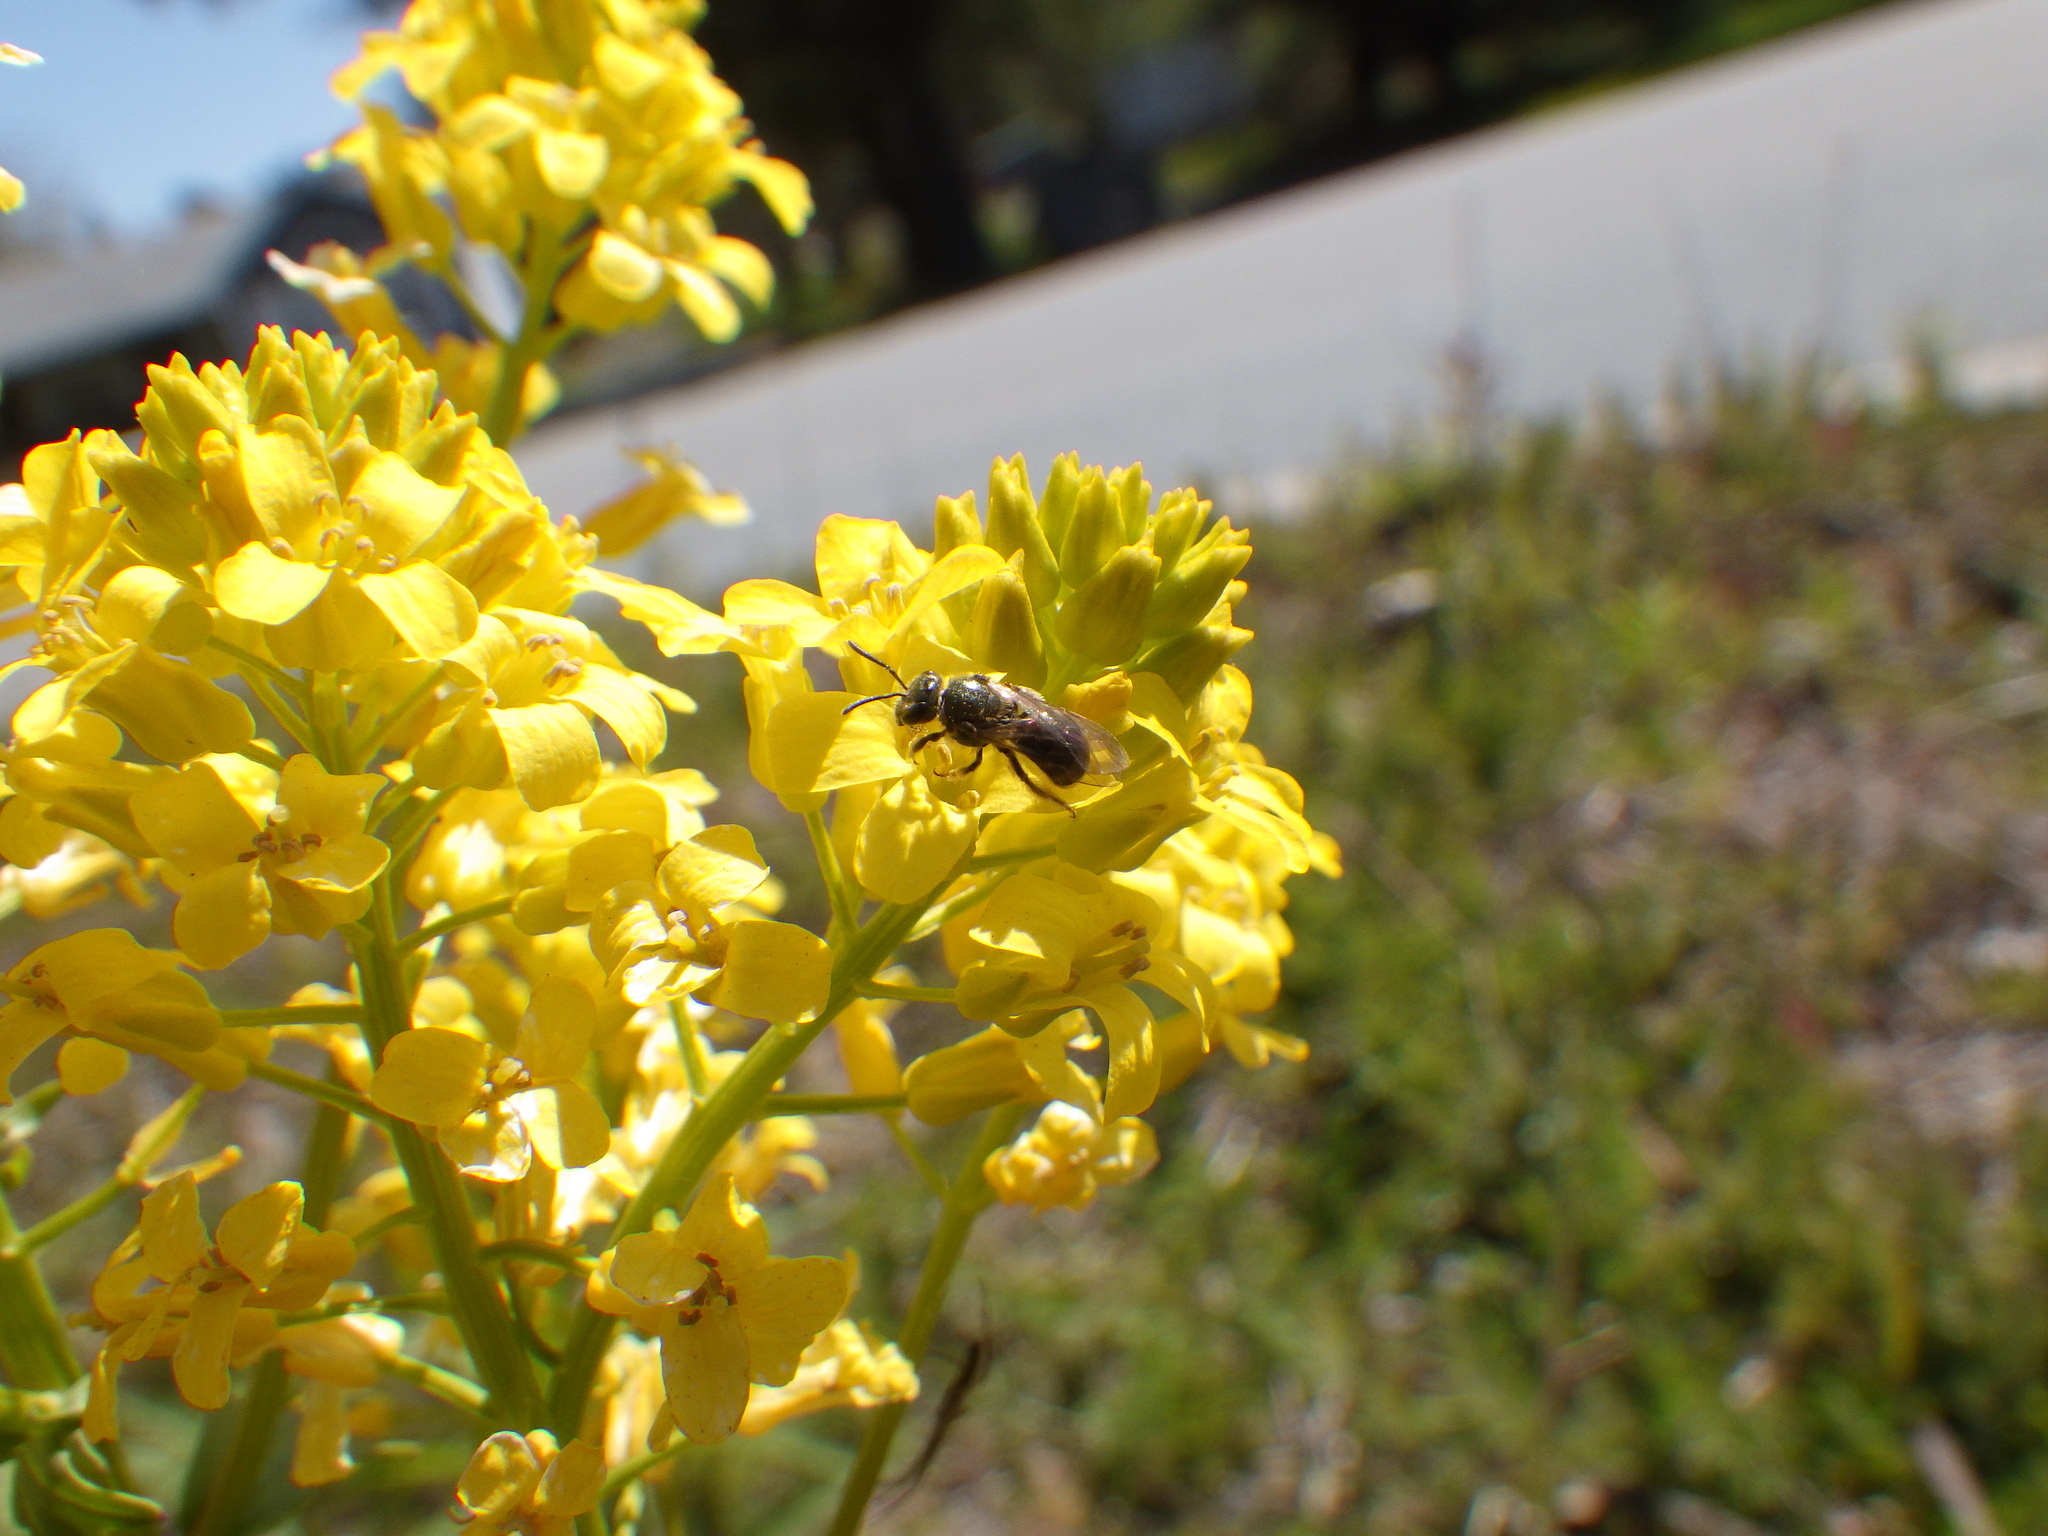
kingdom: Plantae
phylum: Tracheophyta
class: Magnoliopsida
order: Brassicales
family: Brassicaceae
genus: Barbarea
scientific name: Barbarea vulgaris
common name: Cressy-greens
